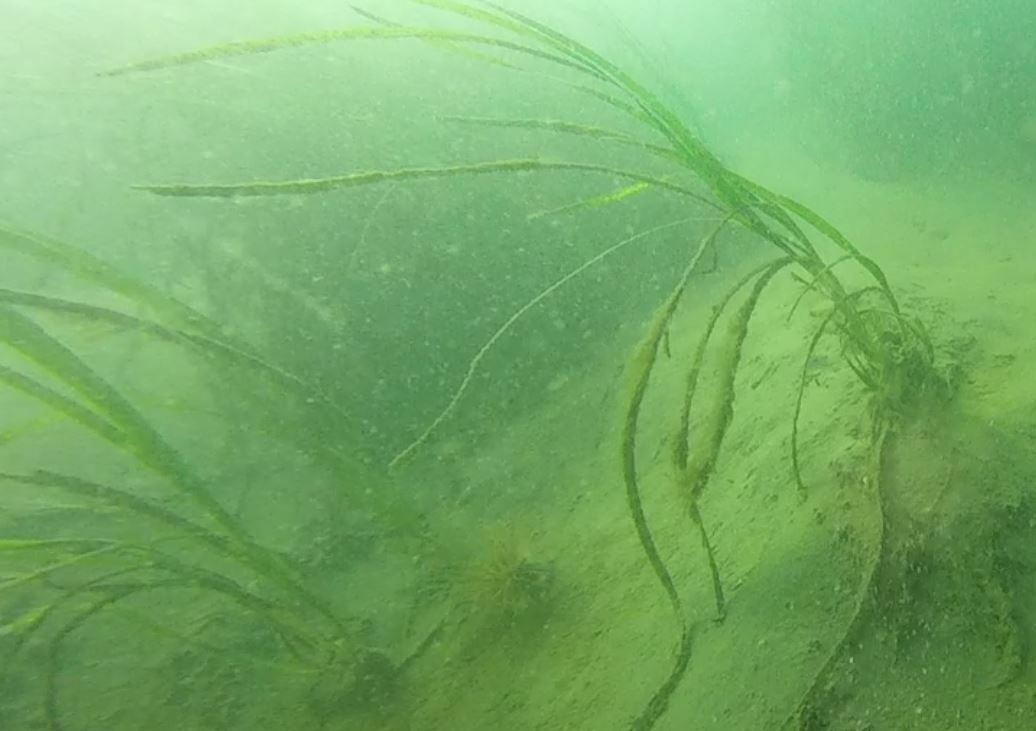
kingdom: Plantae
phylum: Tracheophyta
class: Liliopsida
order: Alismatales
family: Zosteraceae
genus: Zostera
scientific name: Zostera marina
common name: Eelgrass
